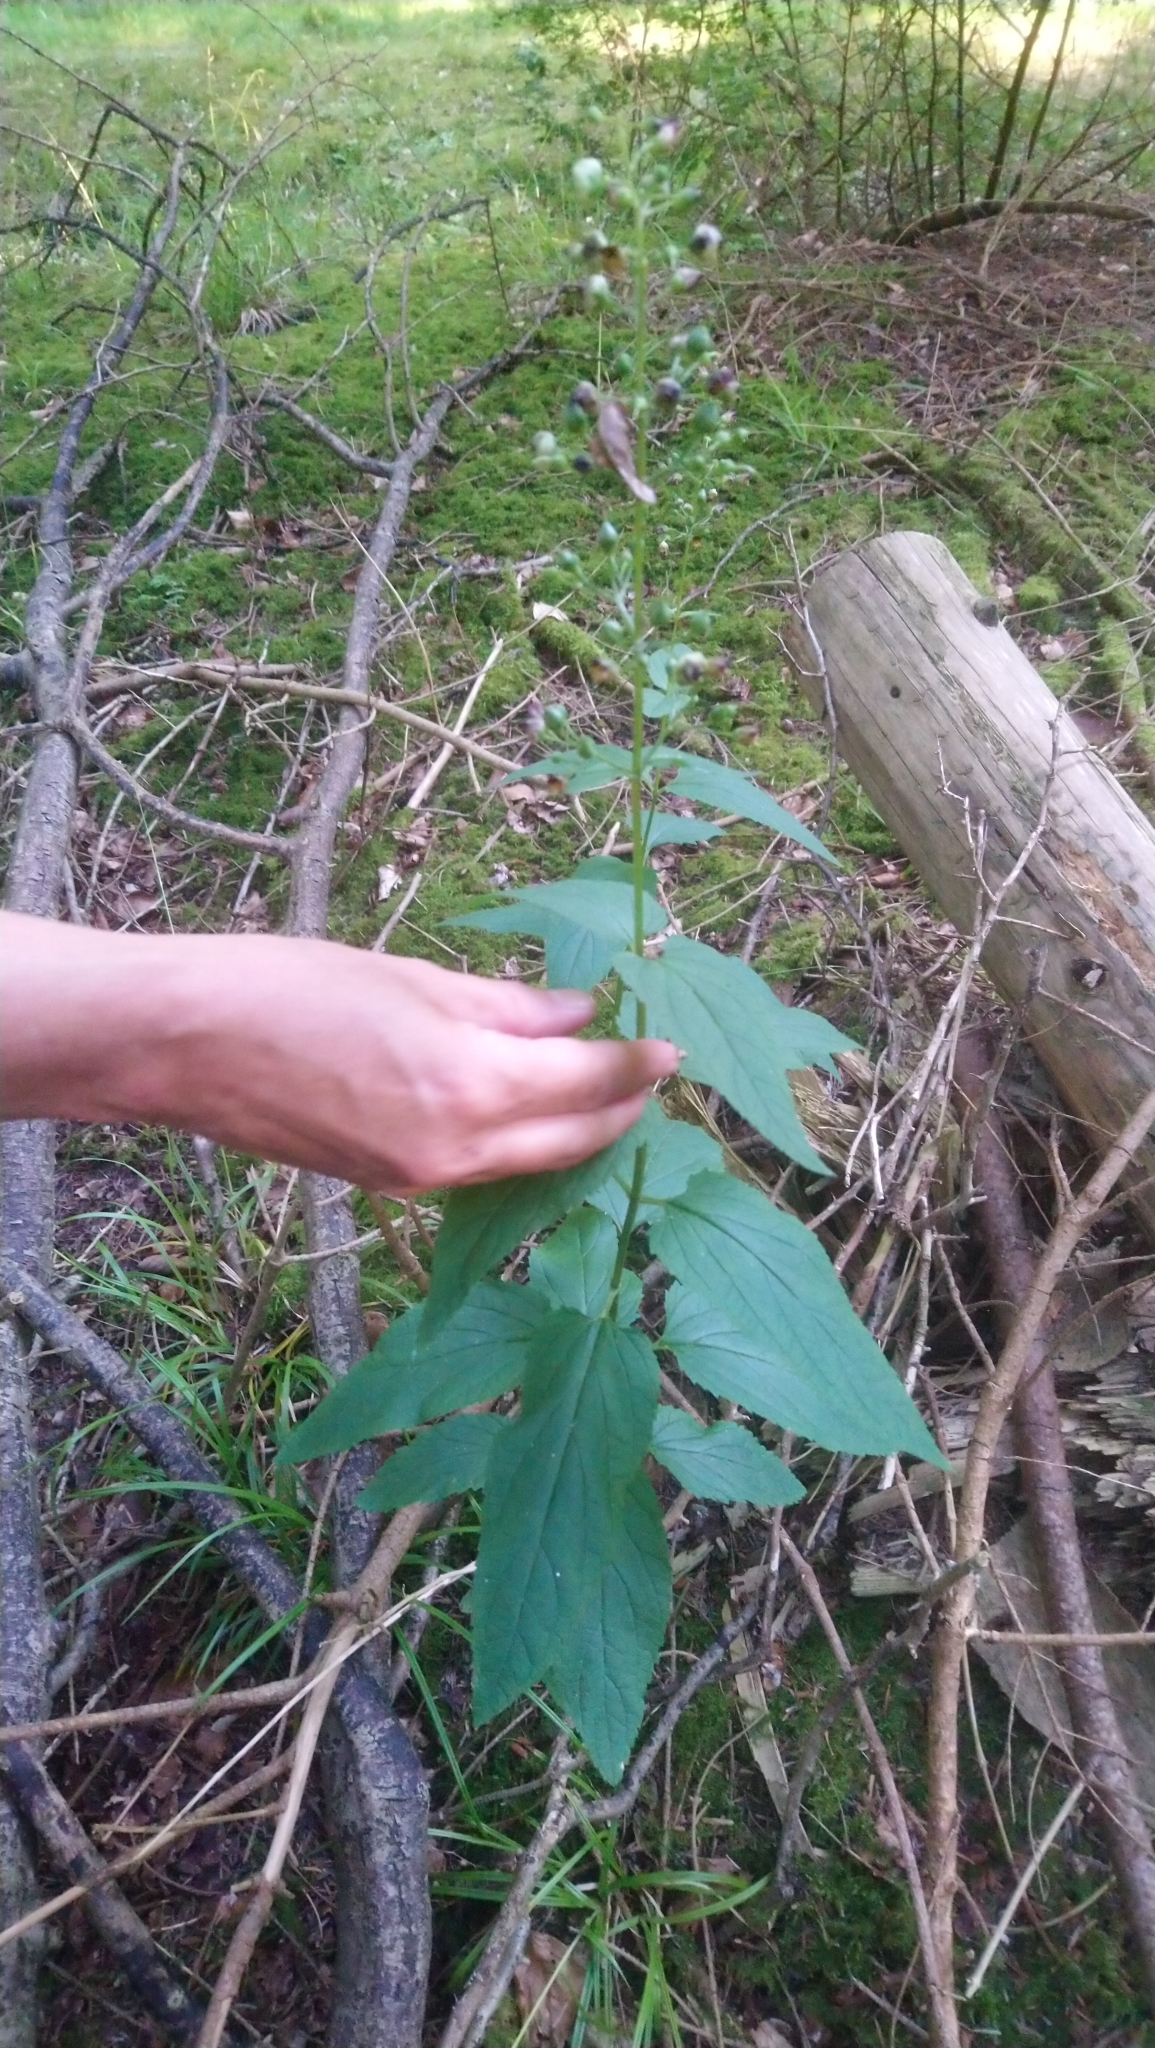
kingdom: Plantae
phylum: Tracheophyta
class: Magnoliopsida
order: Lamiales
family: Scrophulariaceae
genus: Scrophularia
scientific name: Scrophularia nodosa
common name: Common figwort
